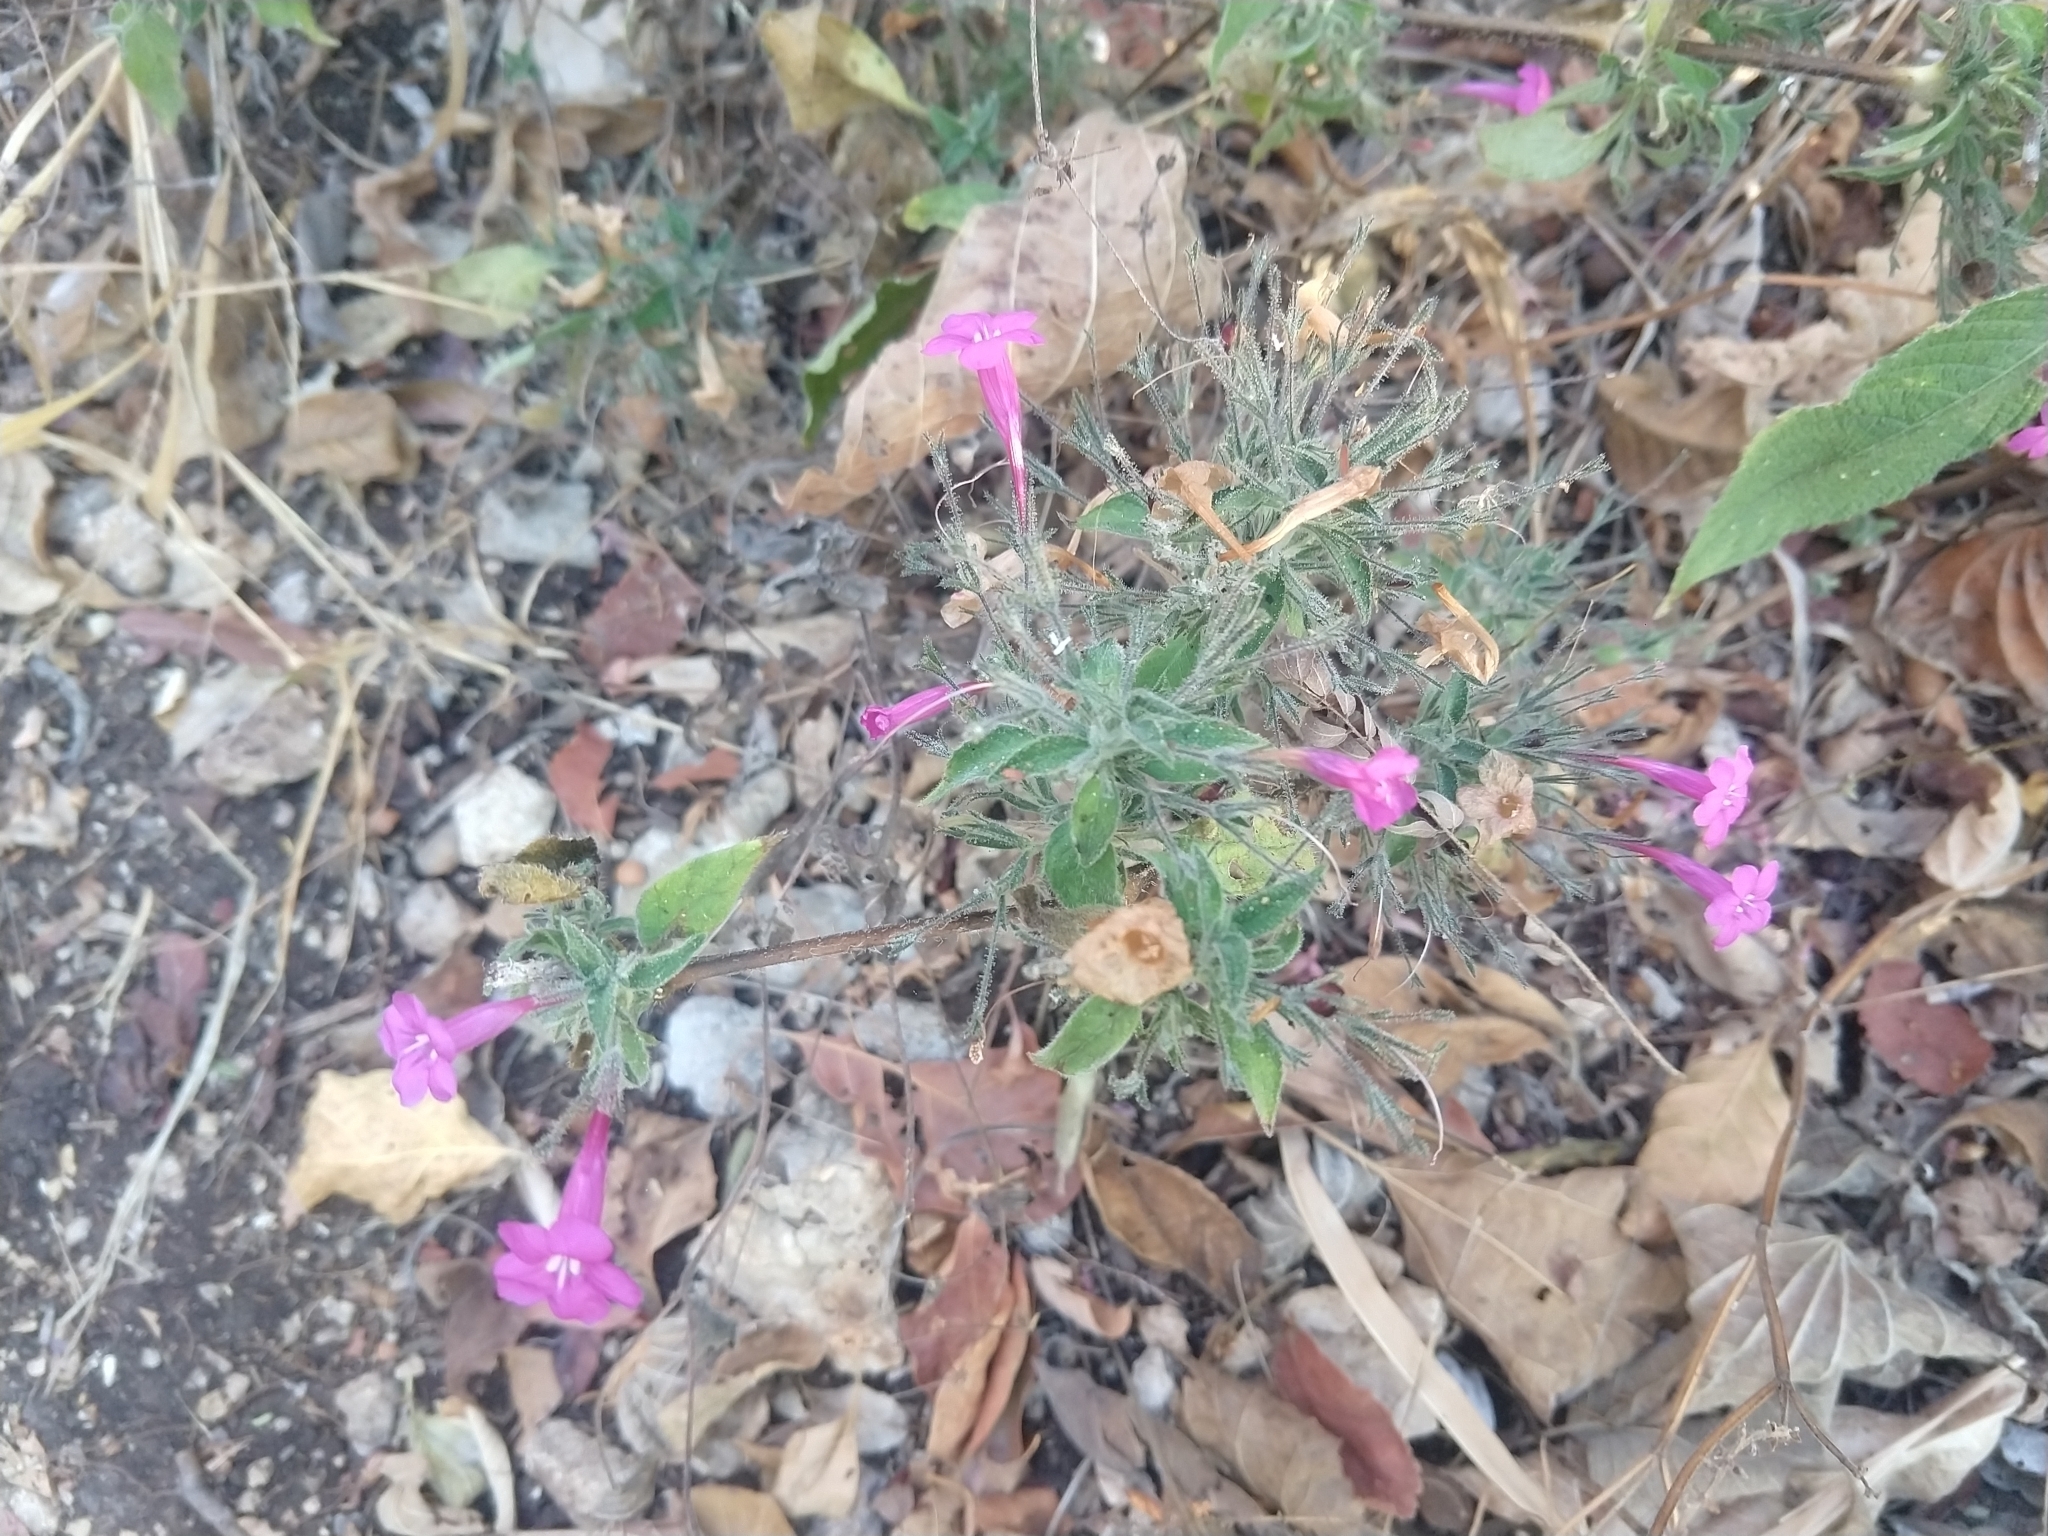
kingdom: Plantae
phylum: Tracheophyta
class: Magnoliopsida
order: Lamiales
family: Acanthaceae
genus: Ruellia
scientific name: Ruellia inundata
